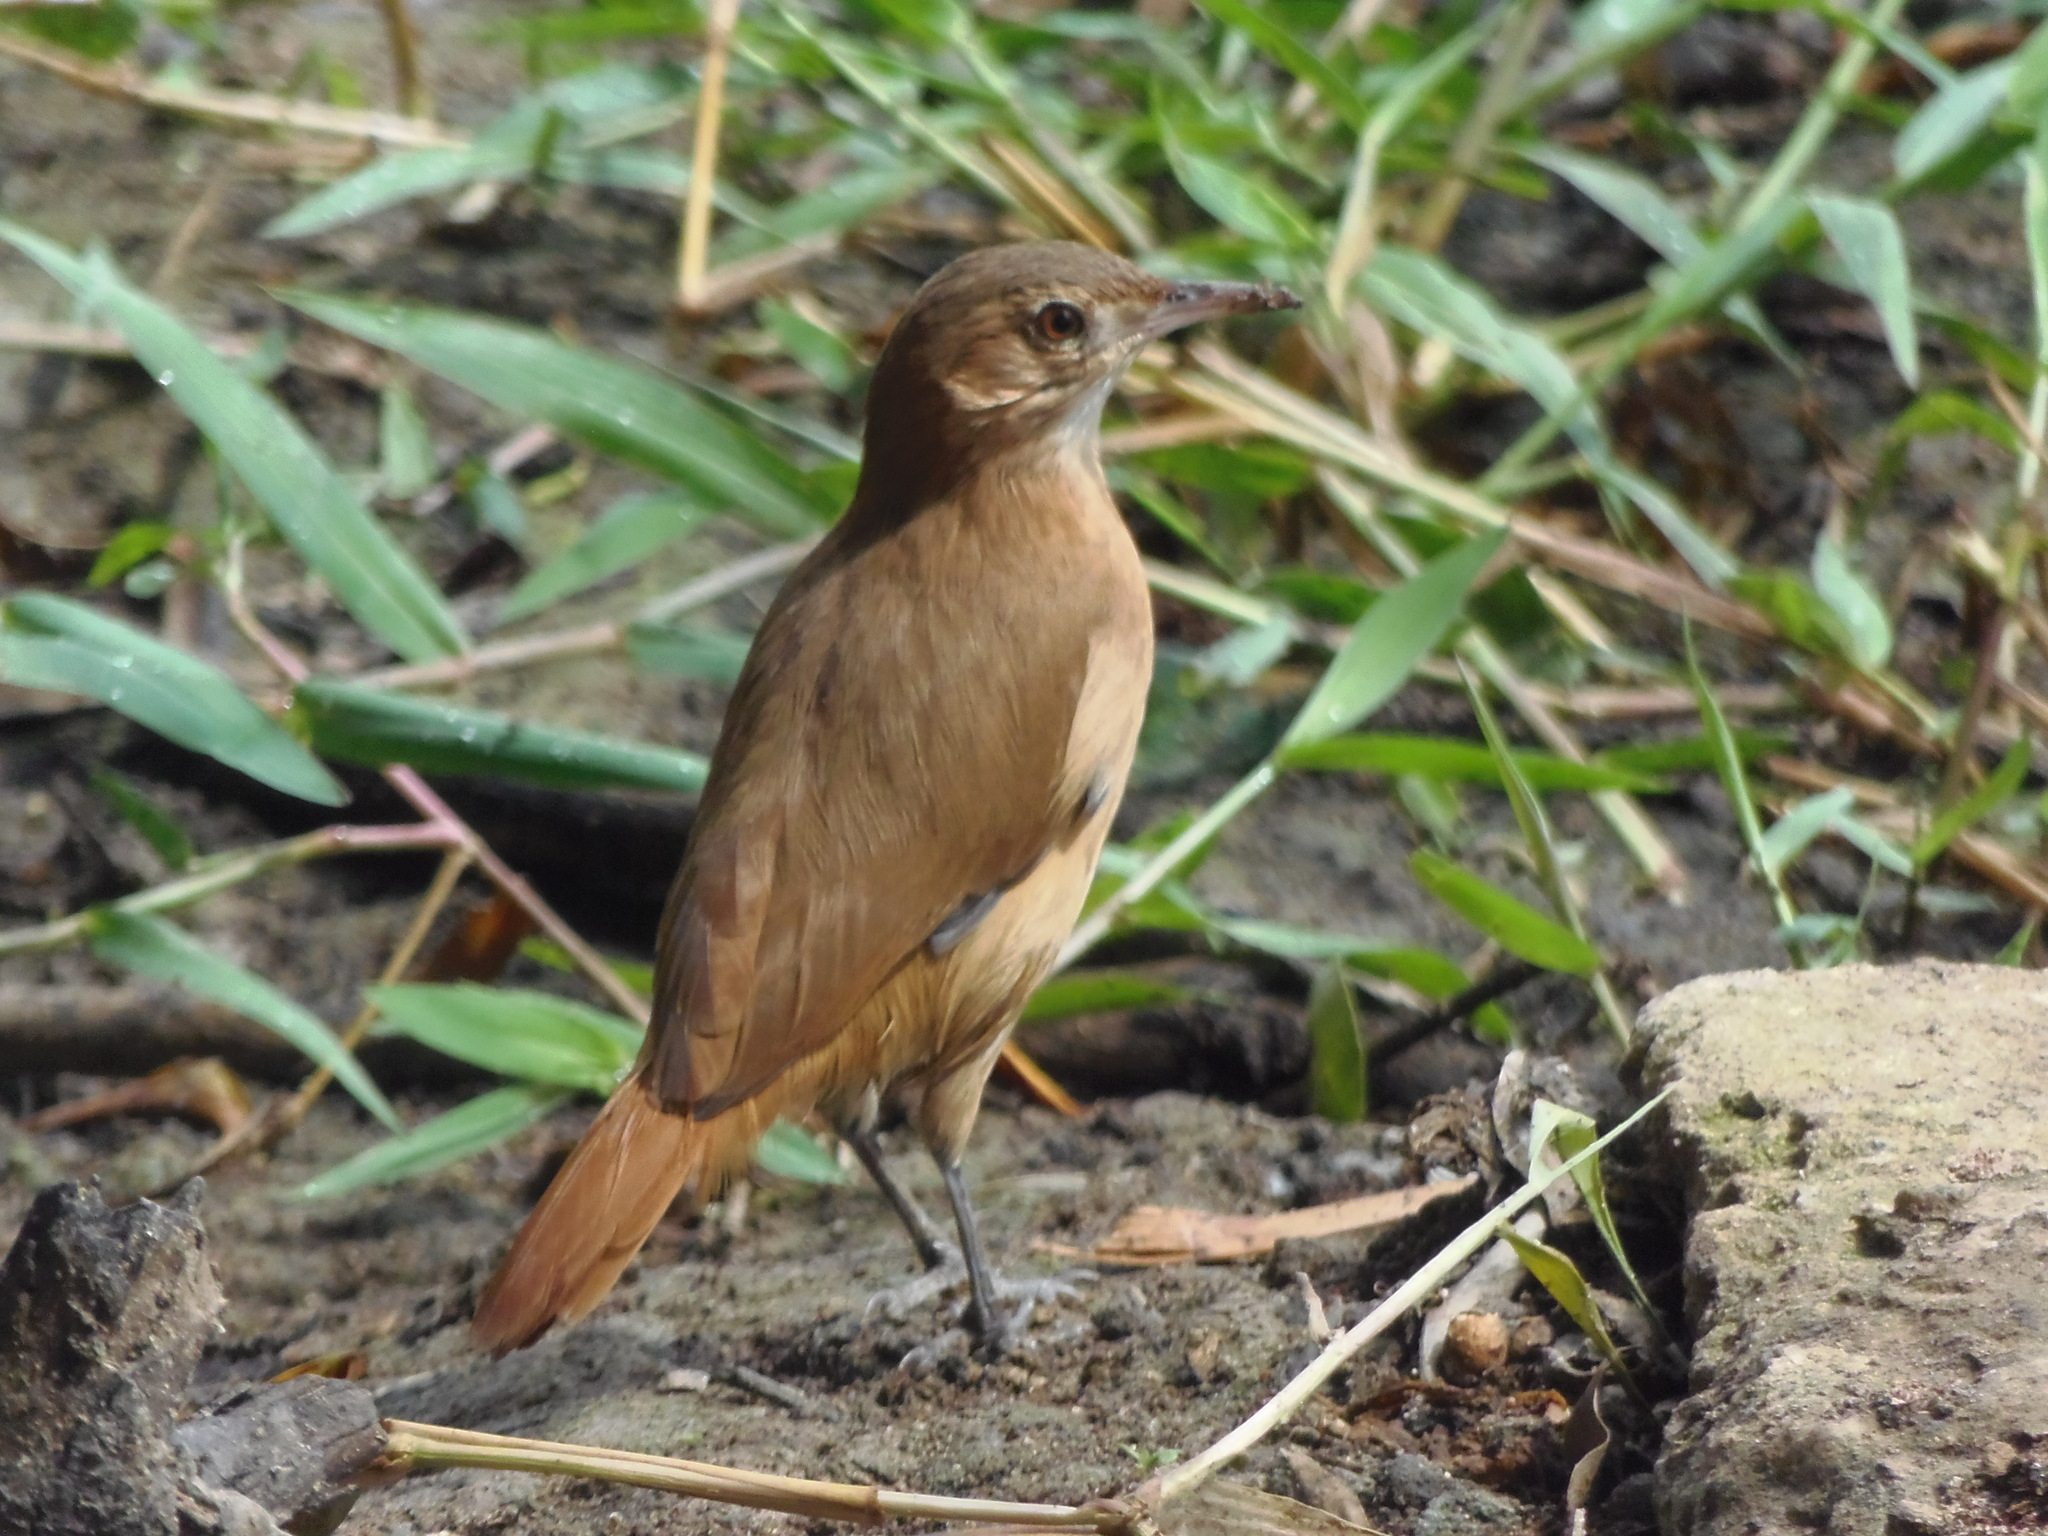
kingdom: Animalia
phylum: Chordata
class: Aves
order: Passeriformes
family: Furnariidae
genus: Furnarius
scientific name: Furnarius rufus
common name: Rufous hornero
